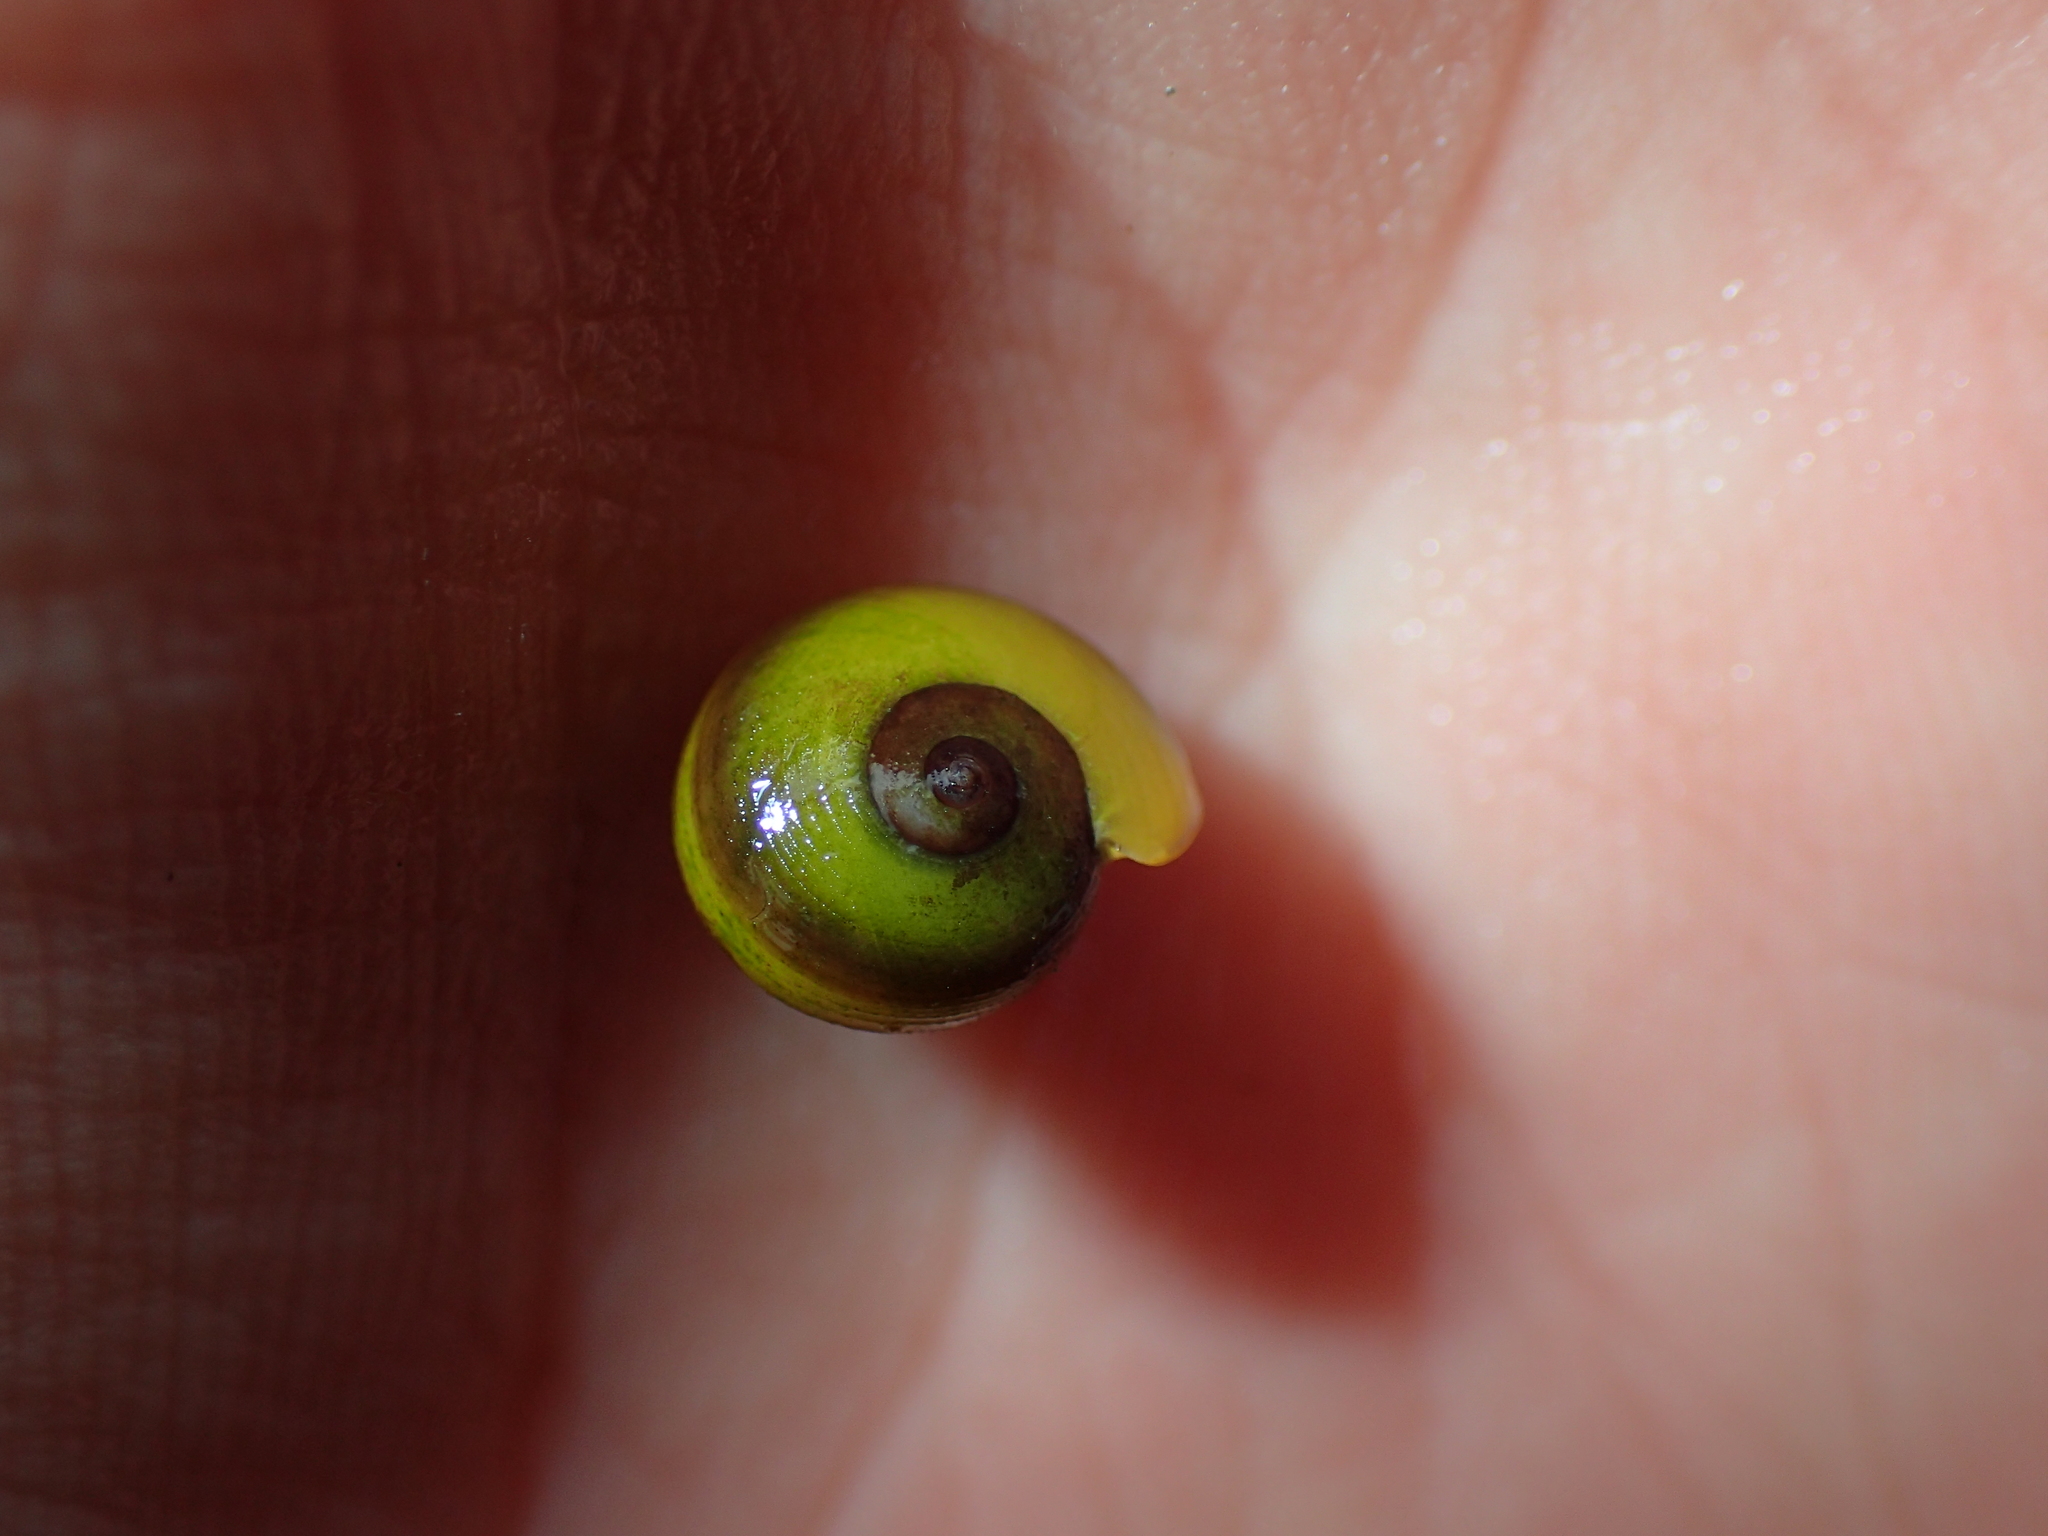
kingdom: Animalia
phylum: Mollusca
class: Gastropoda
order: Littorinimorpha
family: Littorinidae
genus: Littorina
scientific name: Littorina obtusata
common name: Flat periwinkle
